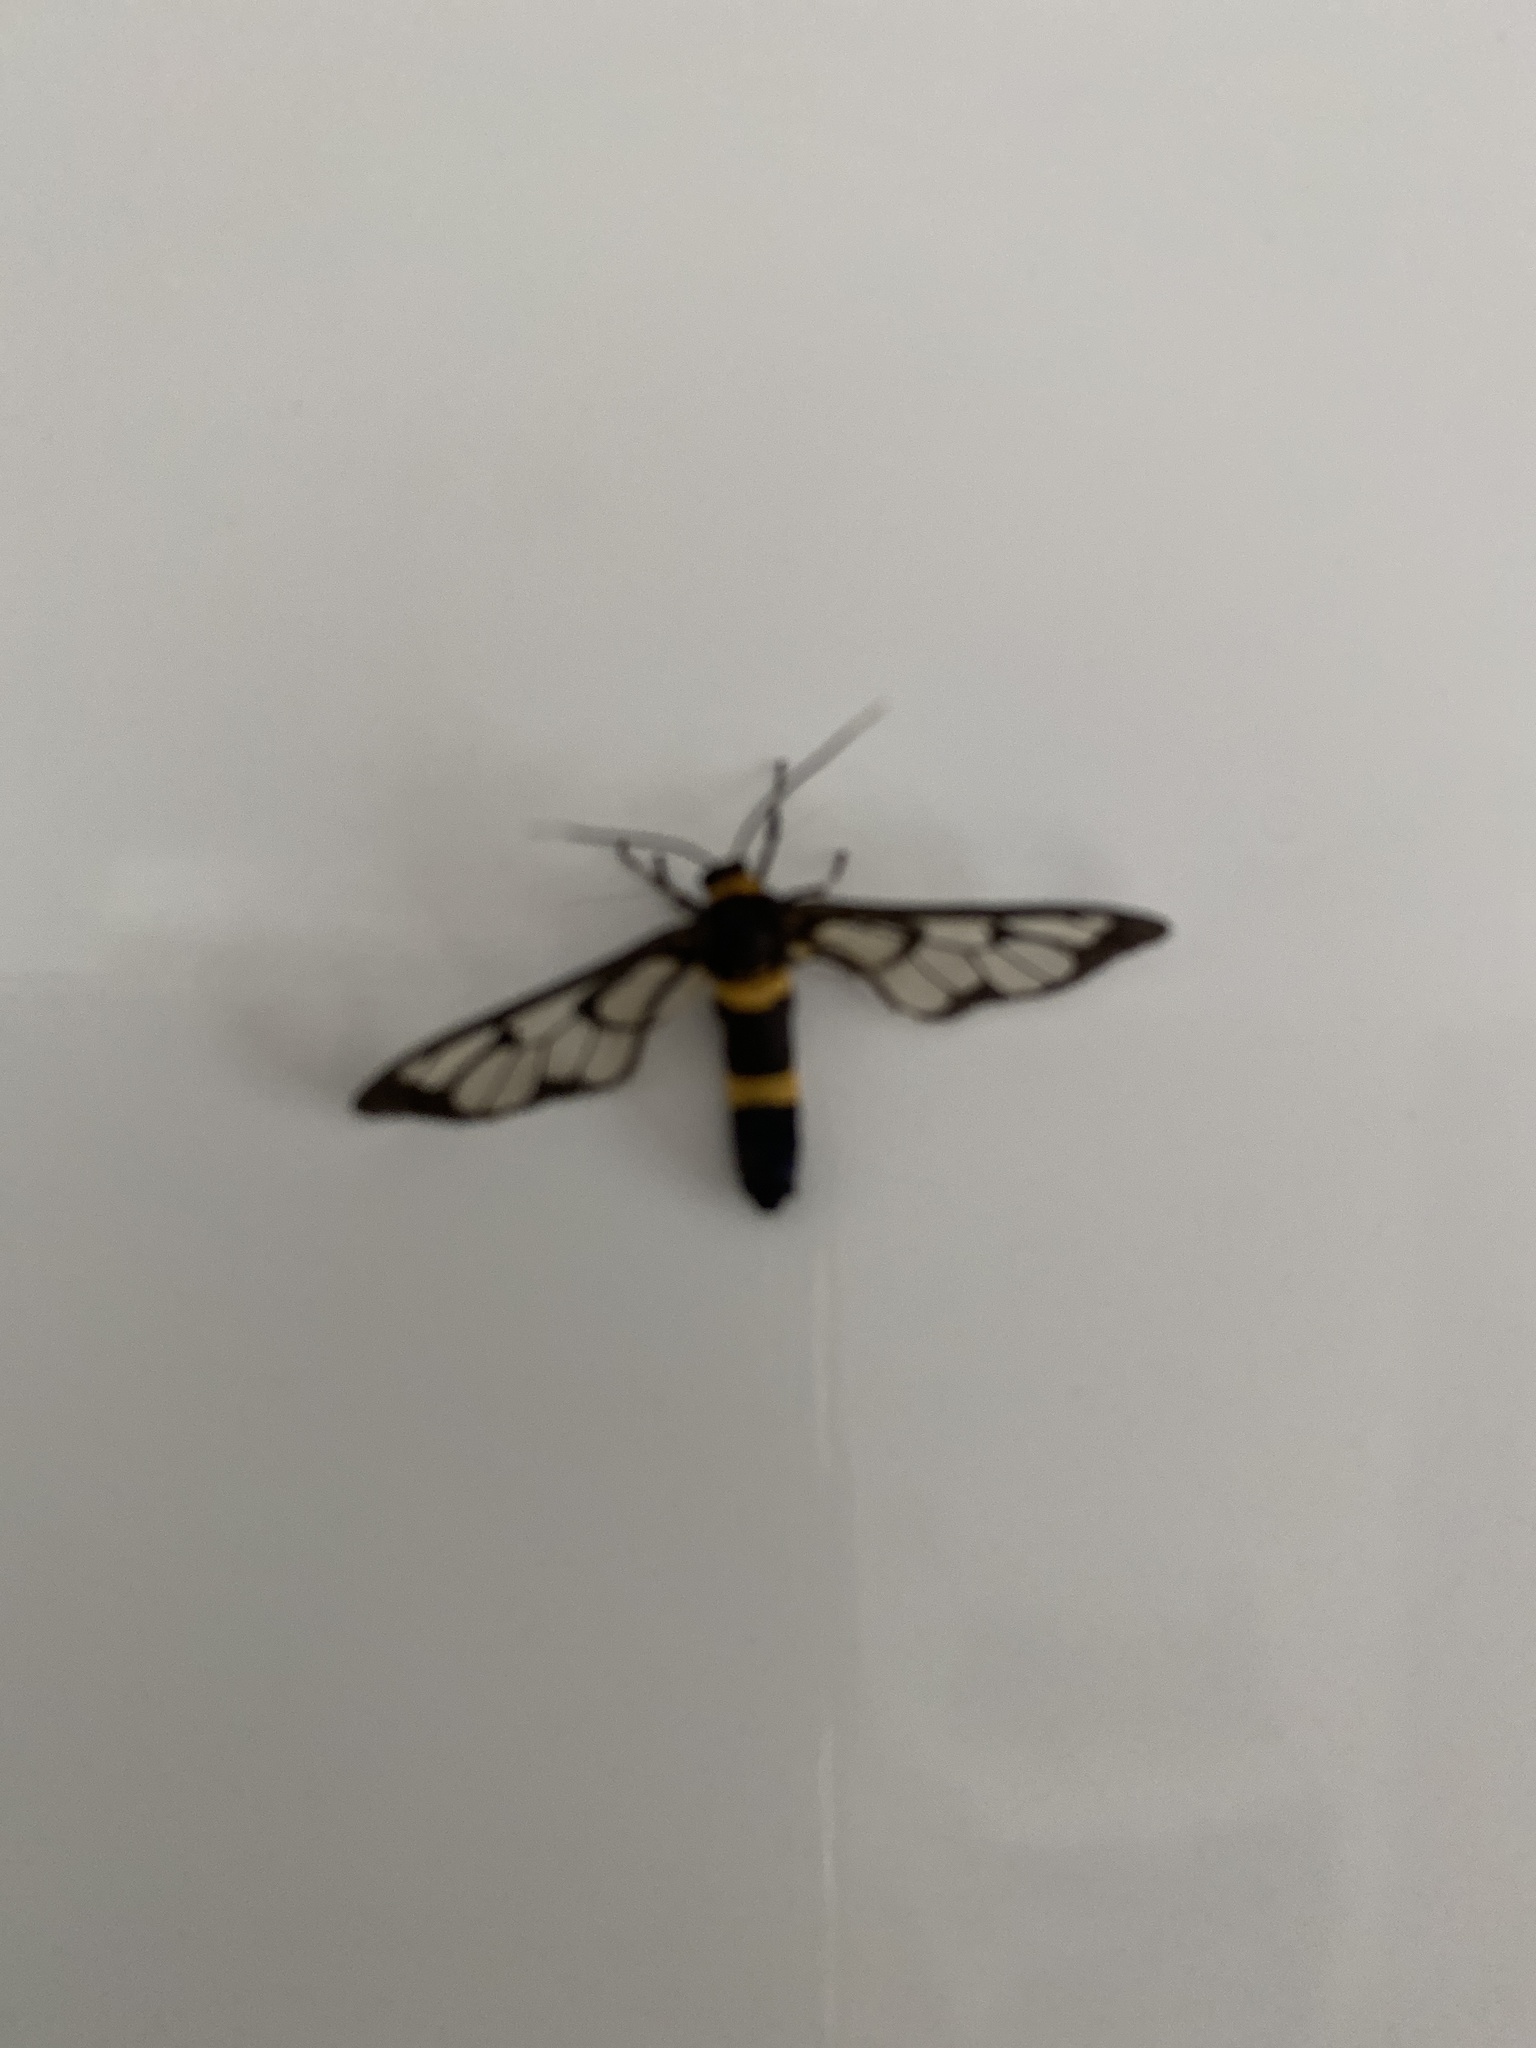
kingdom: Animalia
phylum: Arthropoda
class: Insecta
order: Lepidoptera
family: Erebidae
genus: Syntomoides
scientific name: Syntomoides imaon
